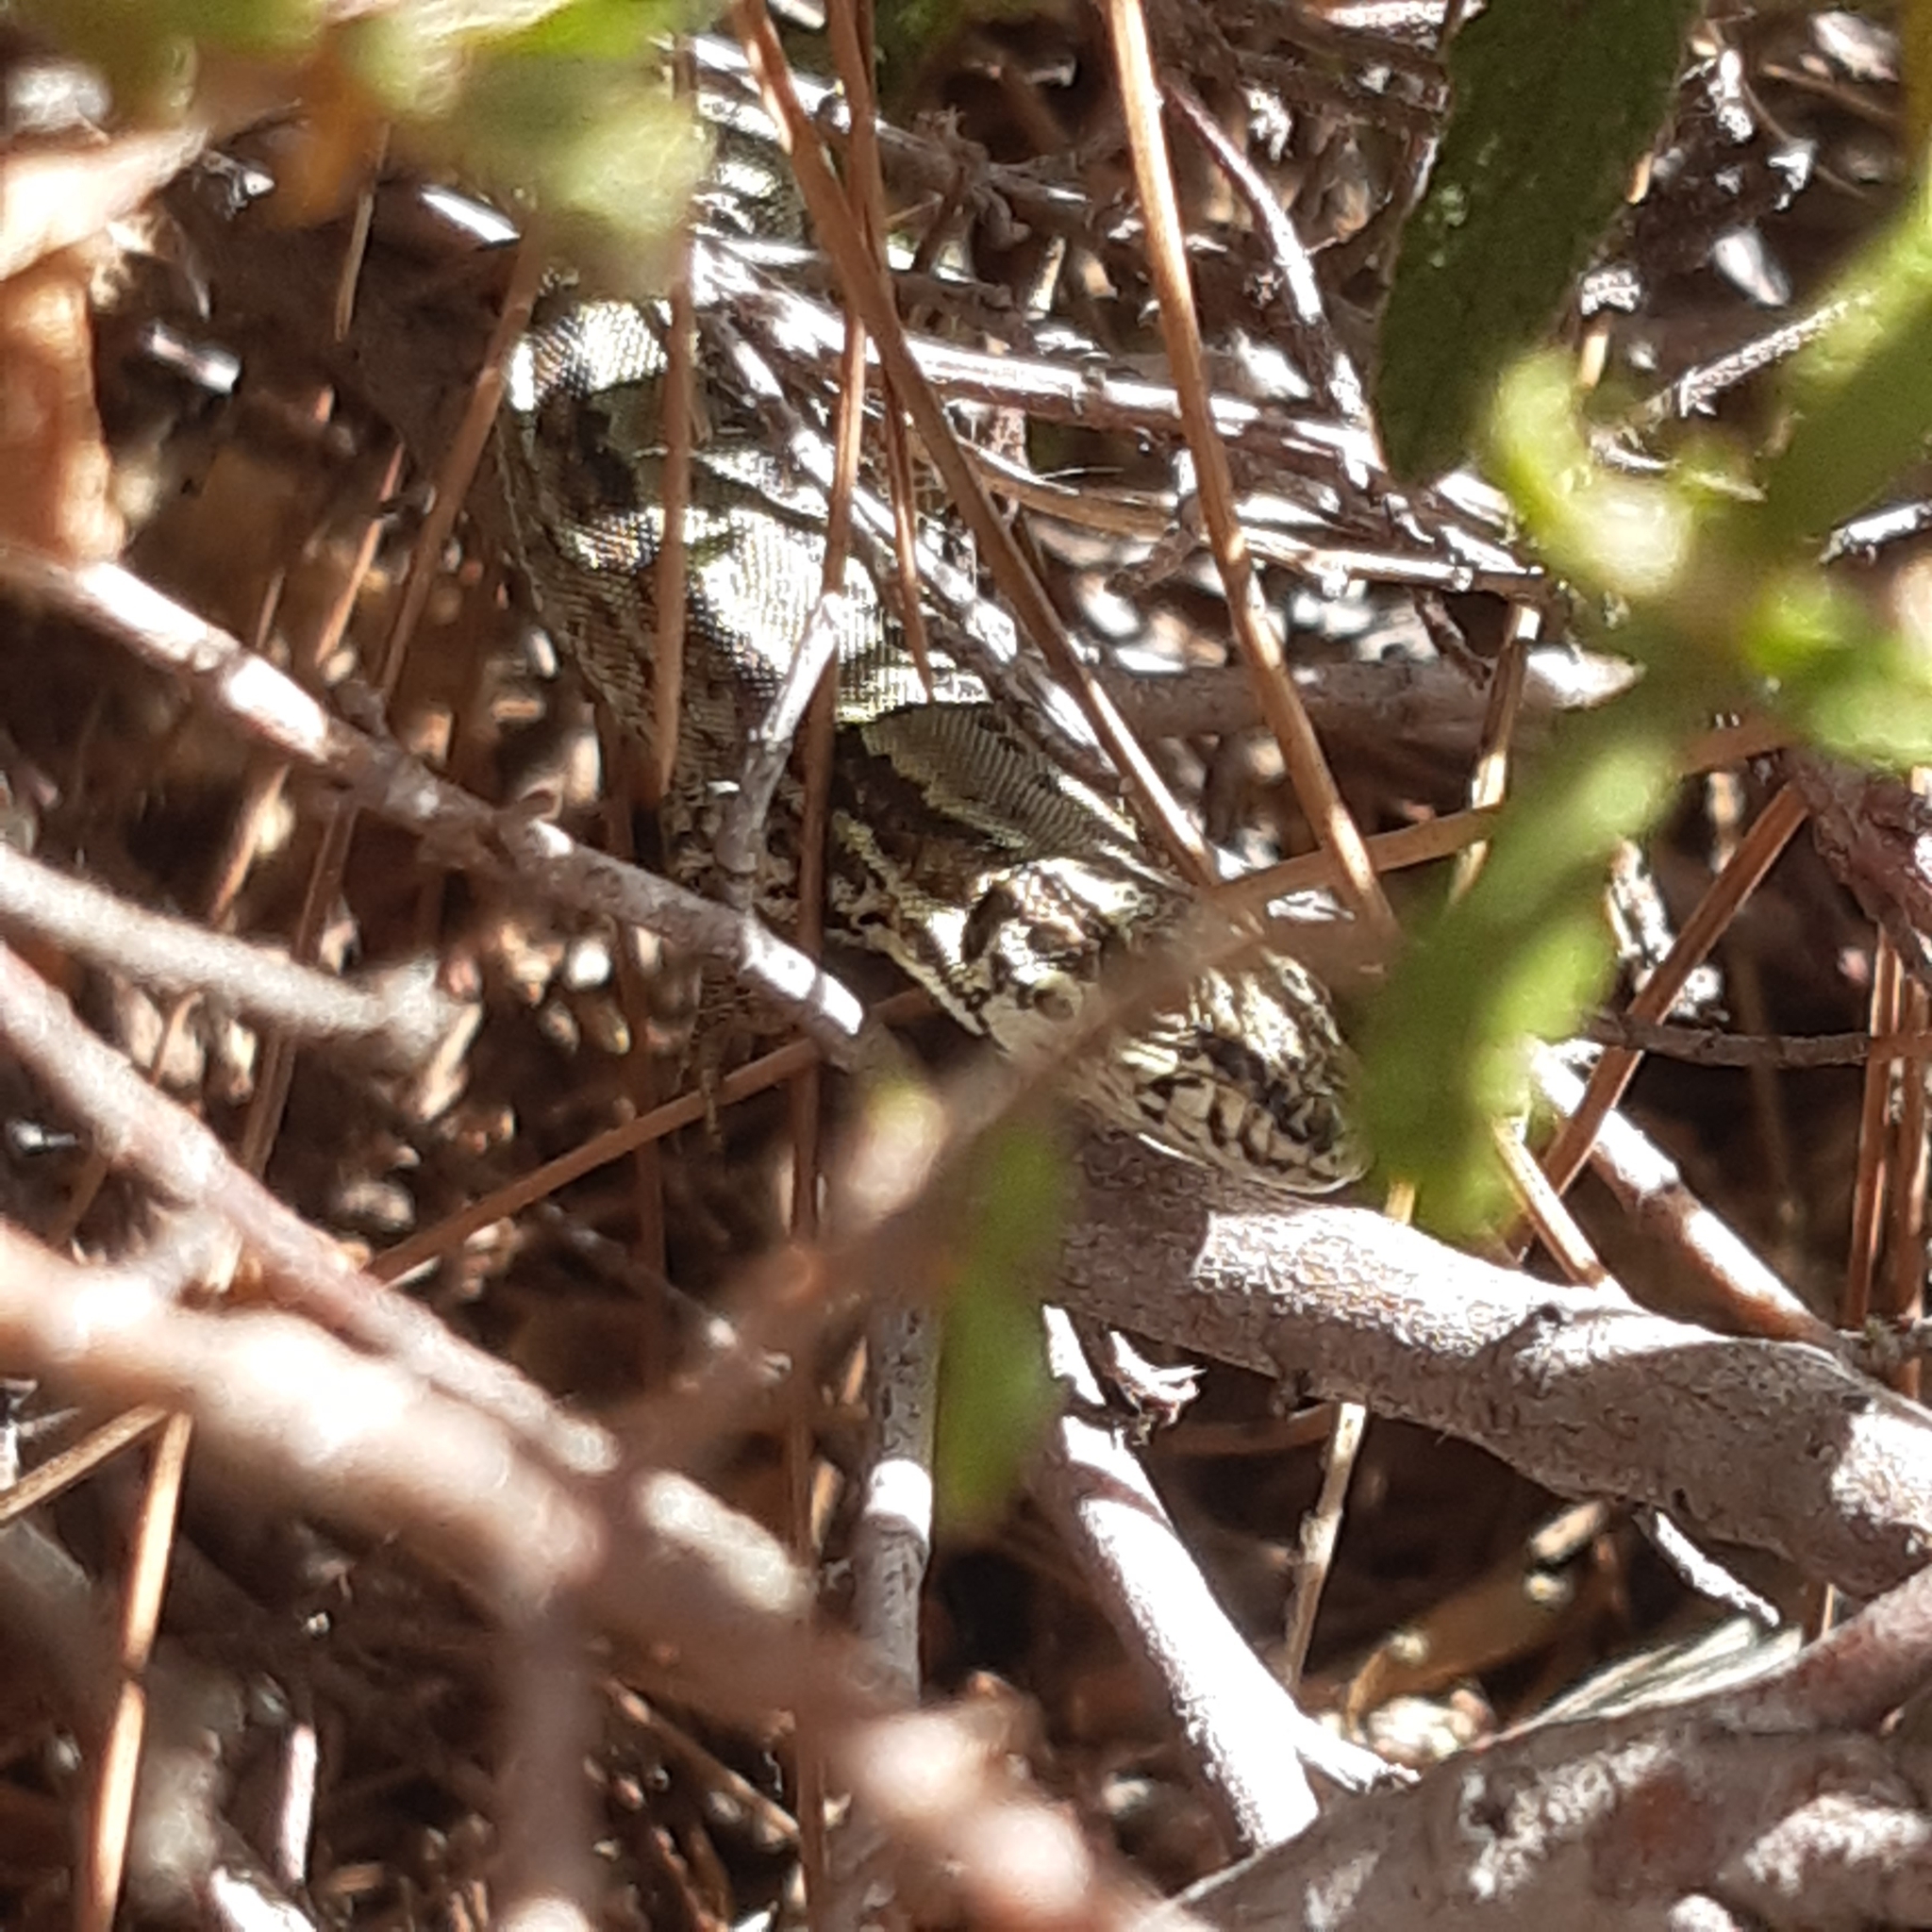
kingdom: Animalia
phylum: Chordata
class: Squamata
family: Lacertidae
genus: Podarcis
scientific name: Podarcis muralis
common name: Common wall lizard
